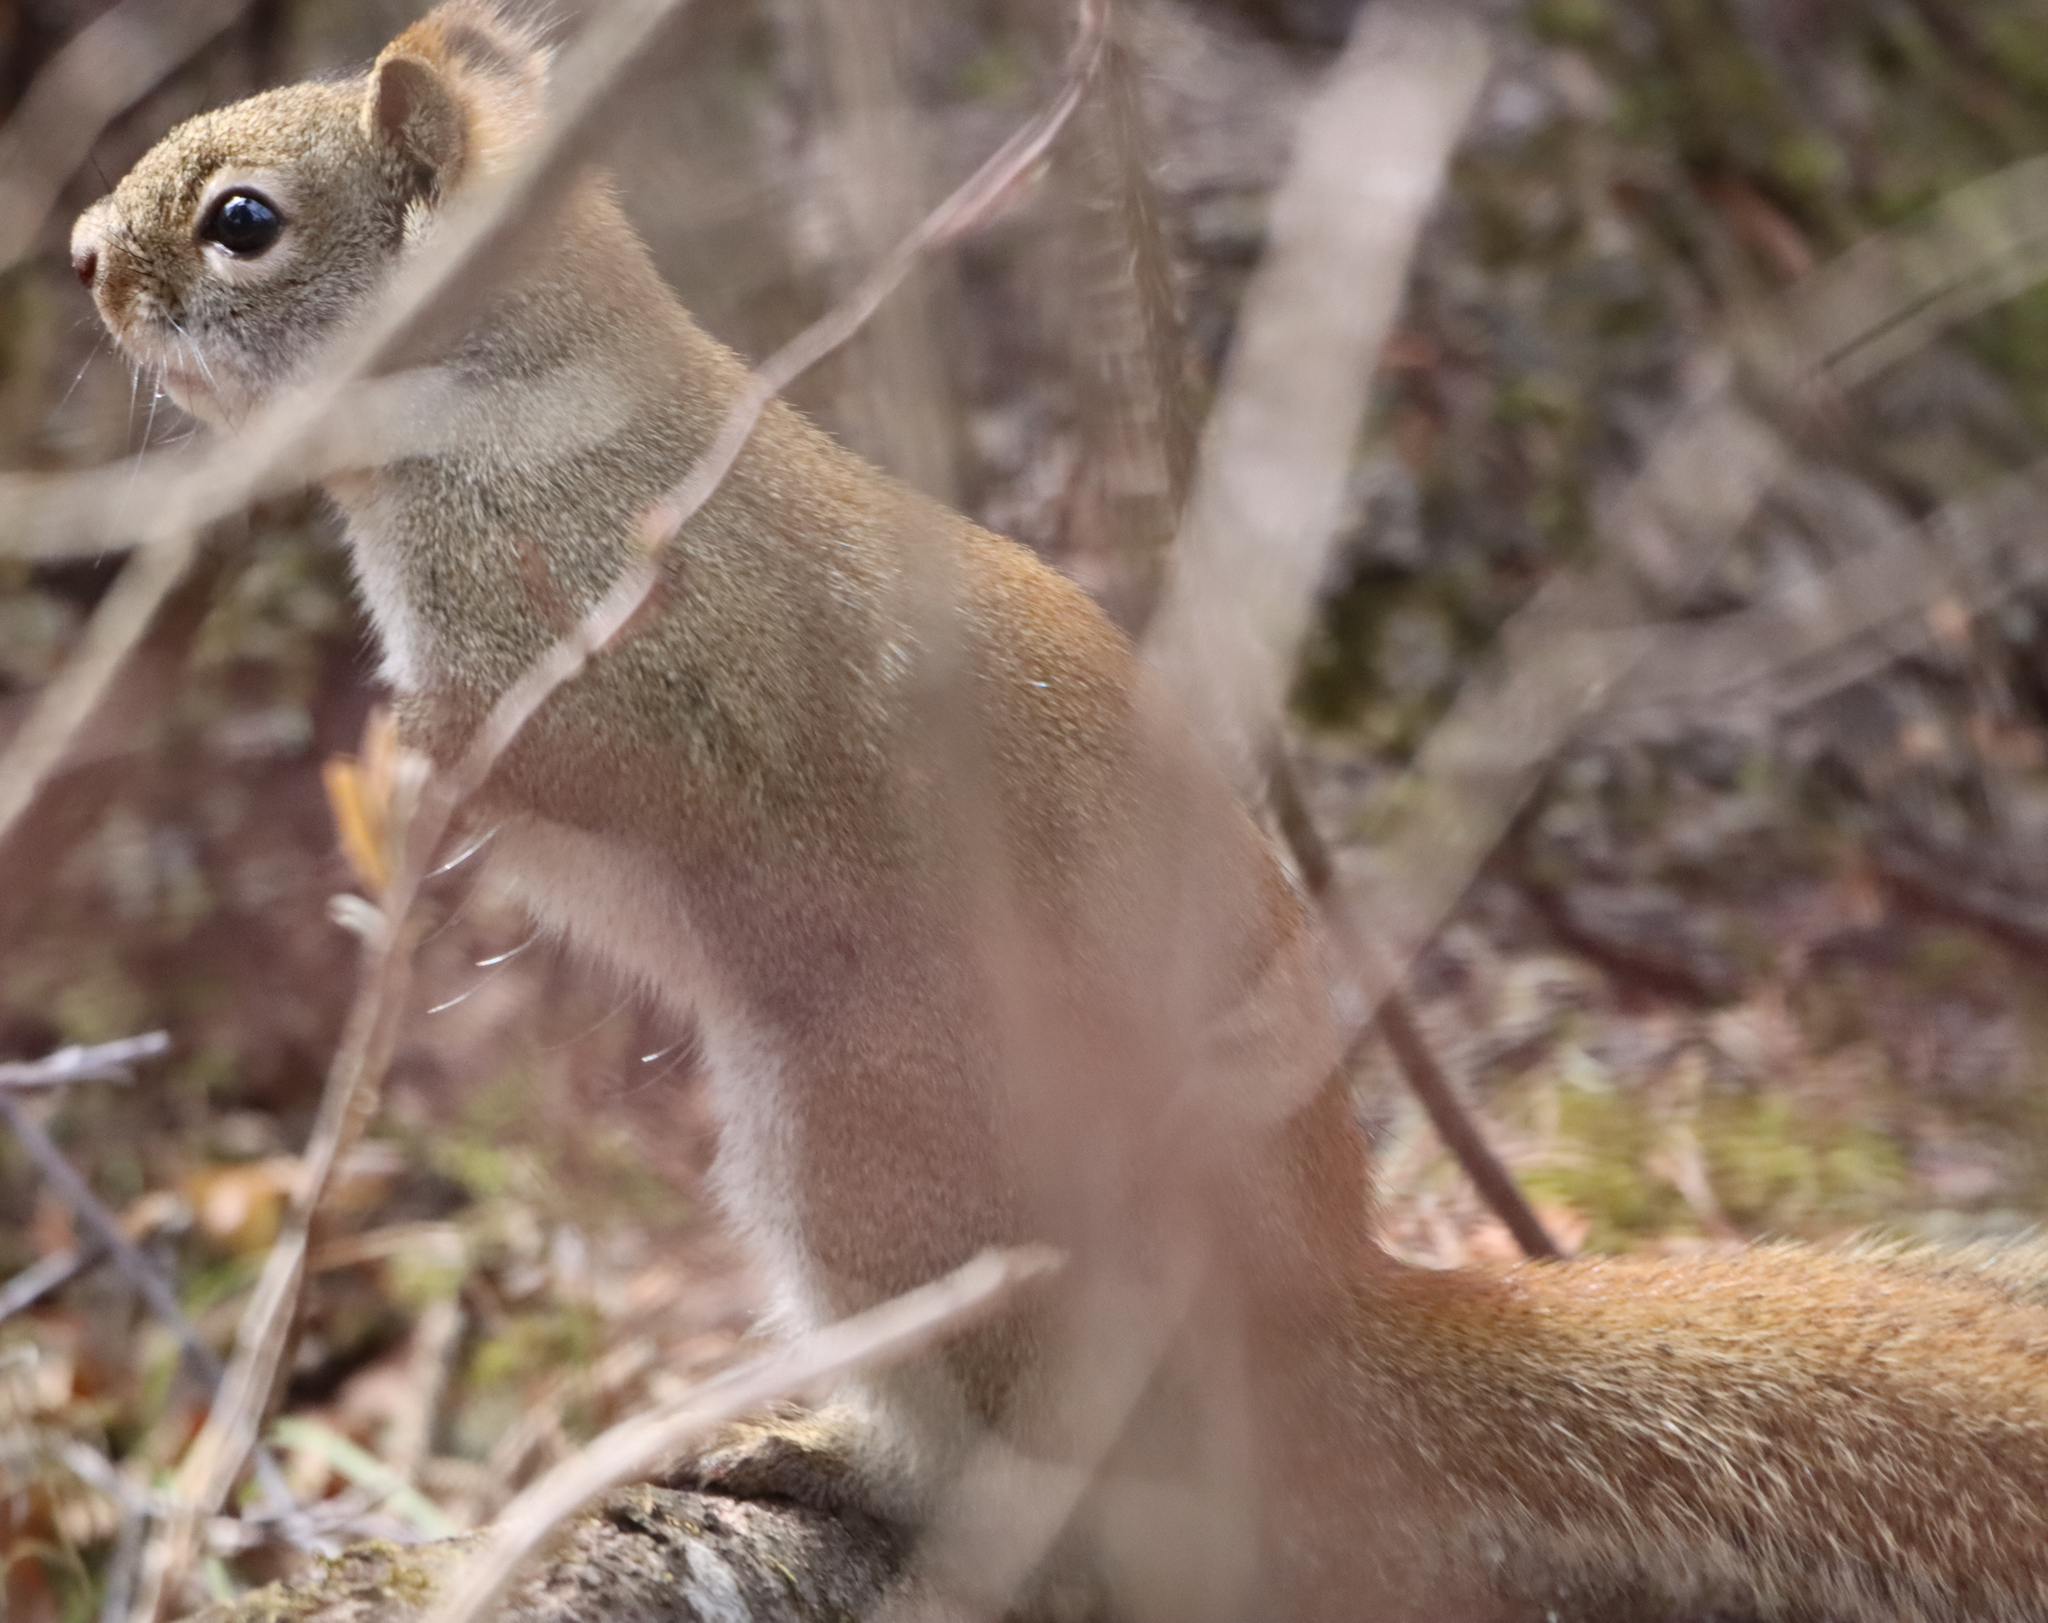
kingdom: Animalia
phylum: Chordata
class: Mammalia
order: Rodentia
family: Sciuridae
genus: Tamiasciurus
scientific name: Tamiasciurus hudsonicus
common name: Red squirrel
